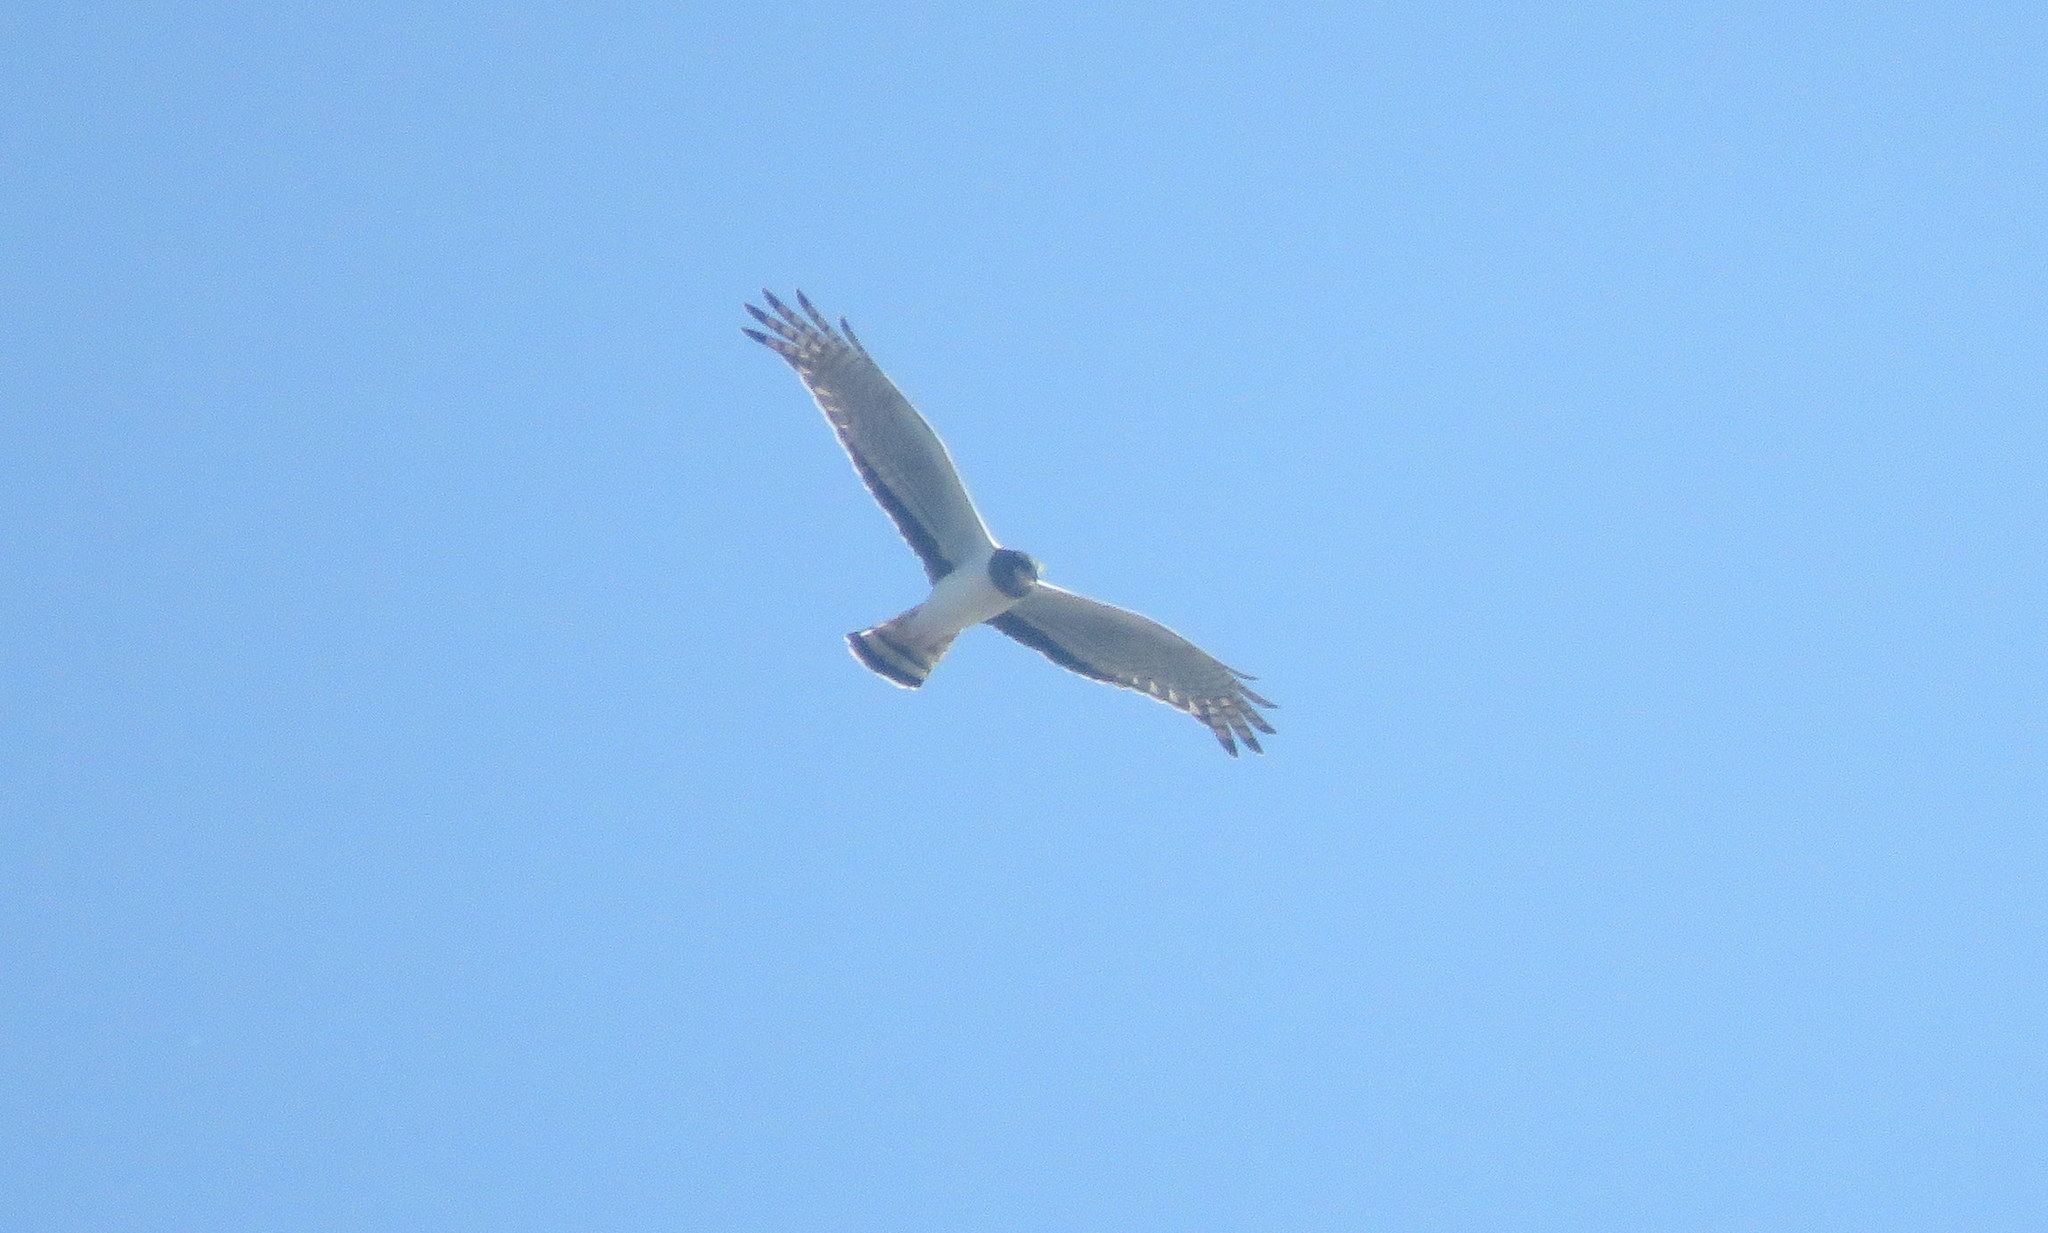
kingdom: Animalia
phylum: Chordata
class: Aves
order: Accipitriformes
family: Accipitridae
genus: Circus
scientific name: Circus buffoni
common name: Long-winged harrier
